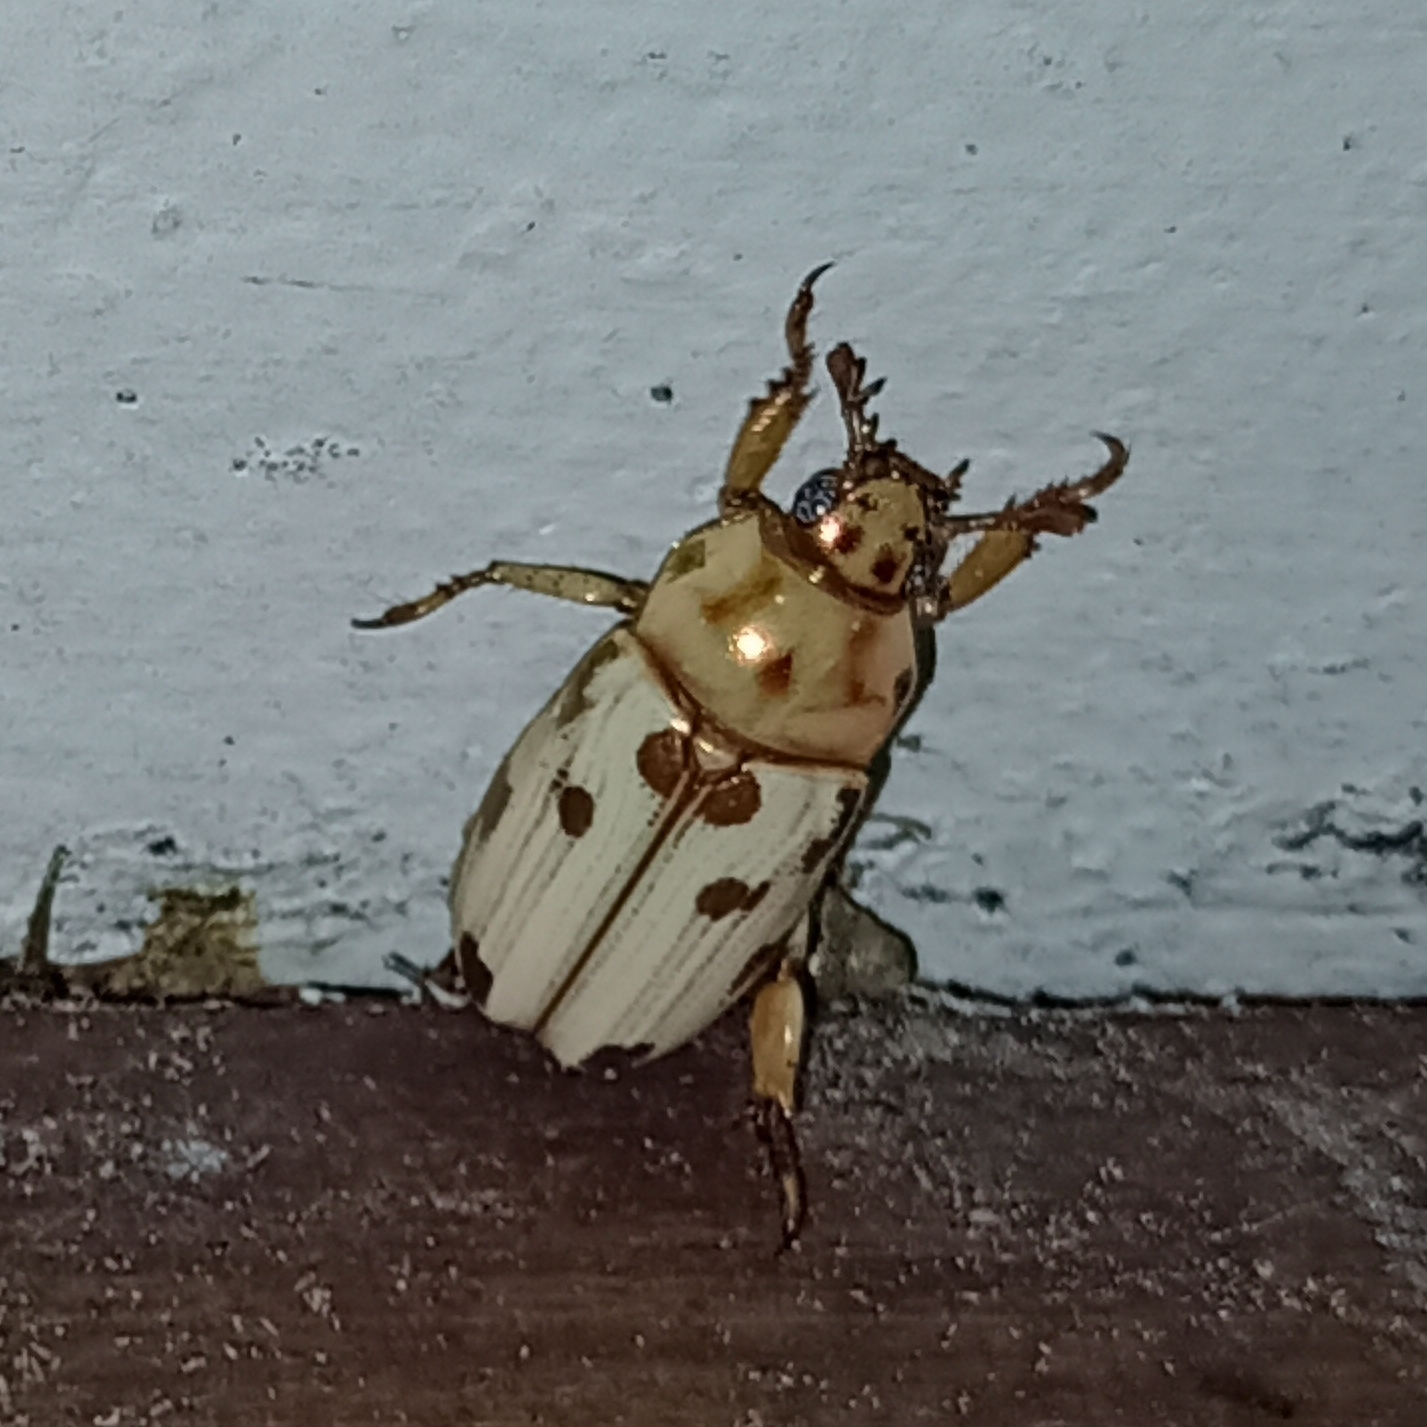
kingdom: Animalia
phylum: Arthropoda
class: Insecta
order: Coleoptera
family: Scarabaeidae
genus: Pelidnota
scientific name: Pelidnota gracilis
